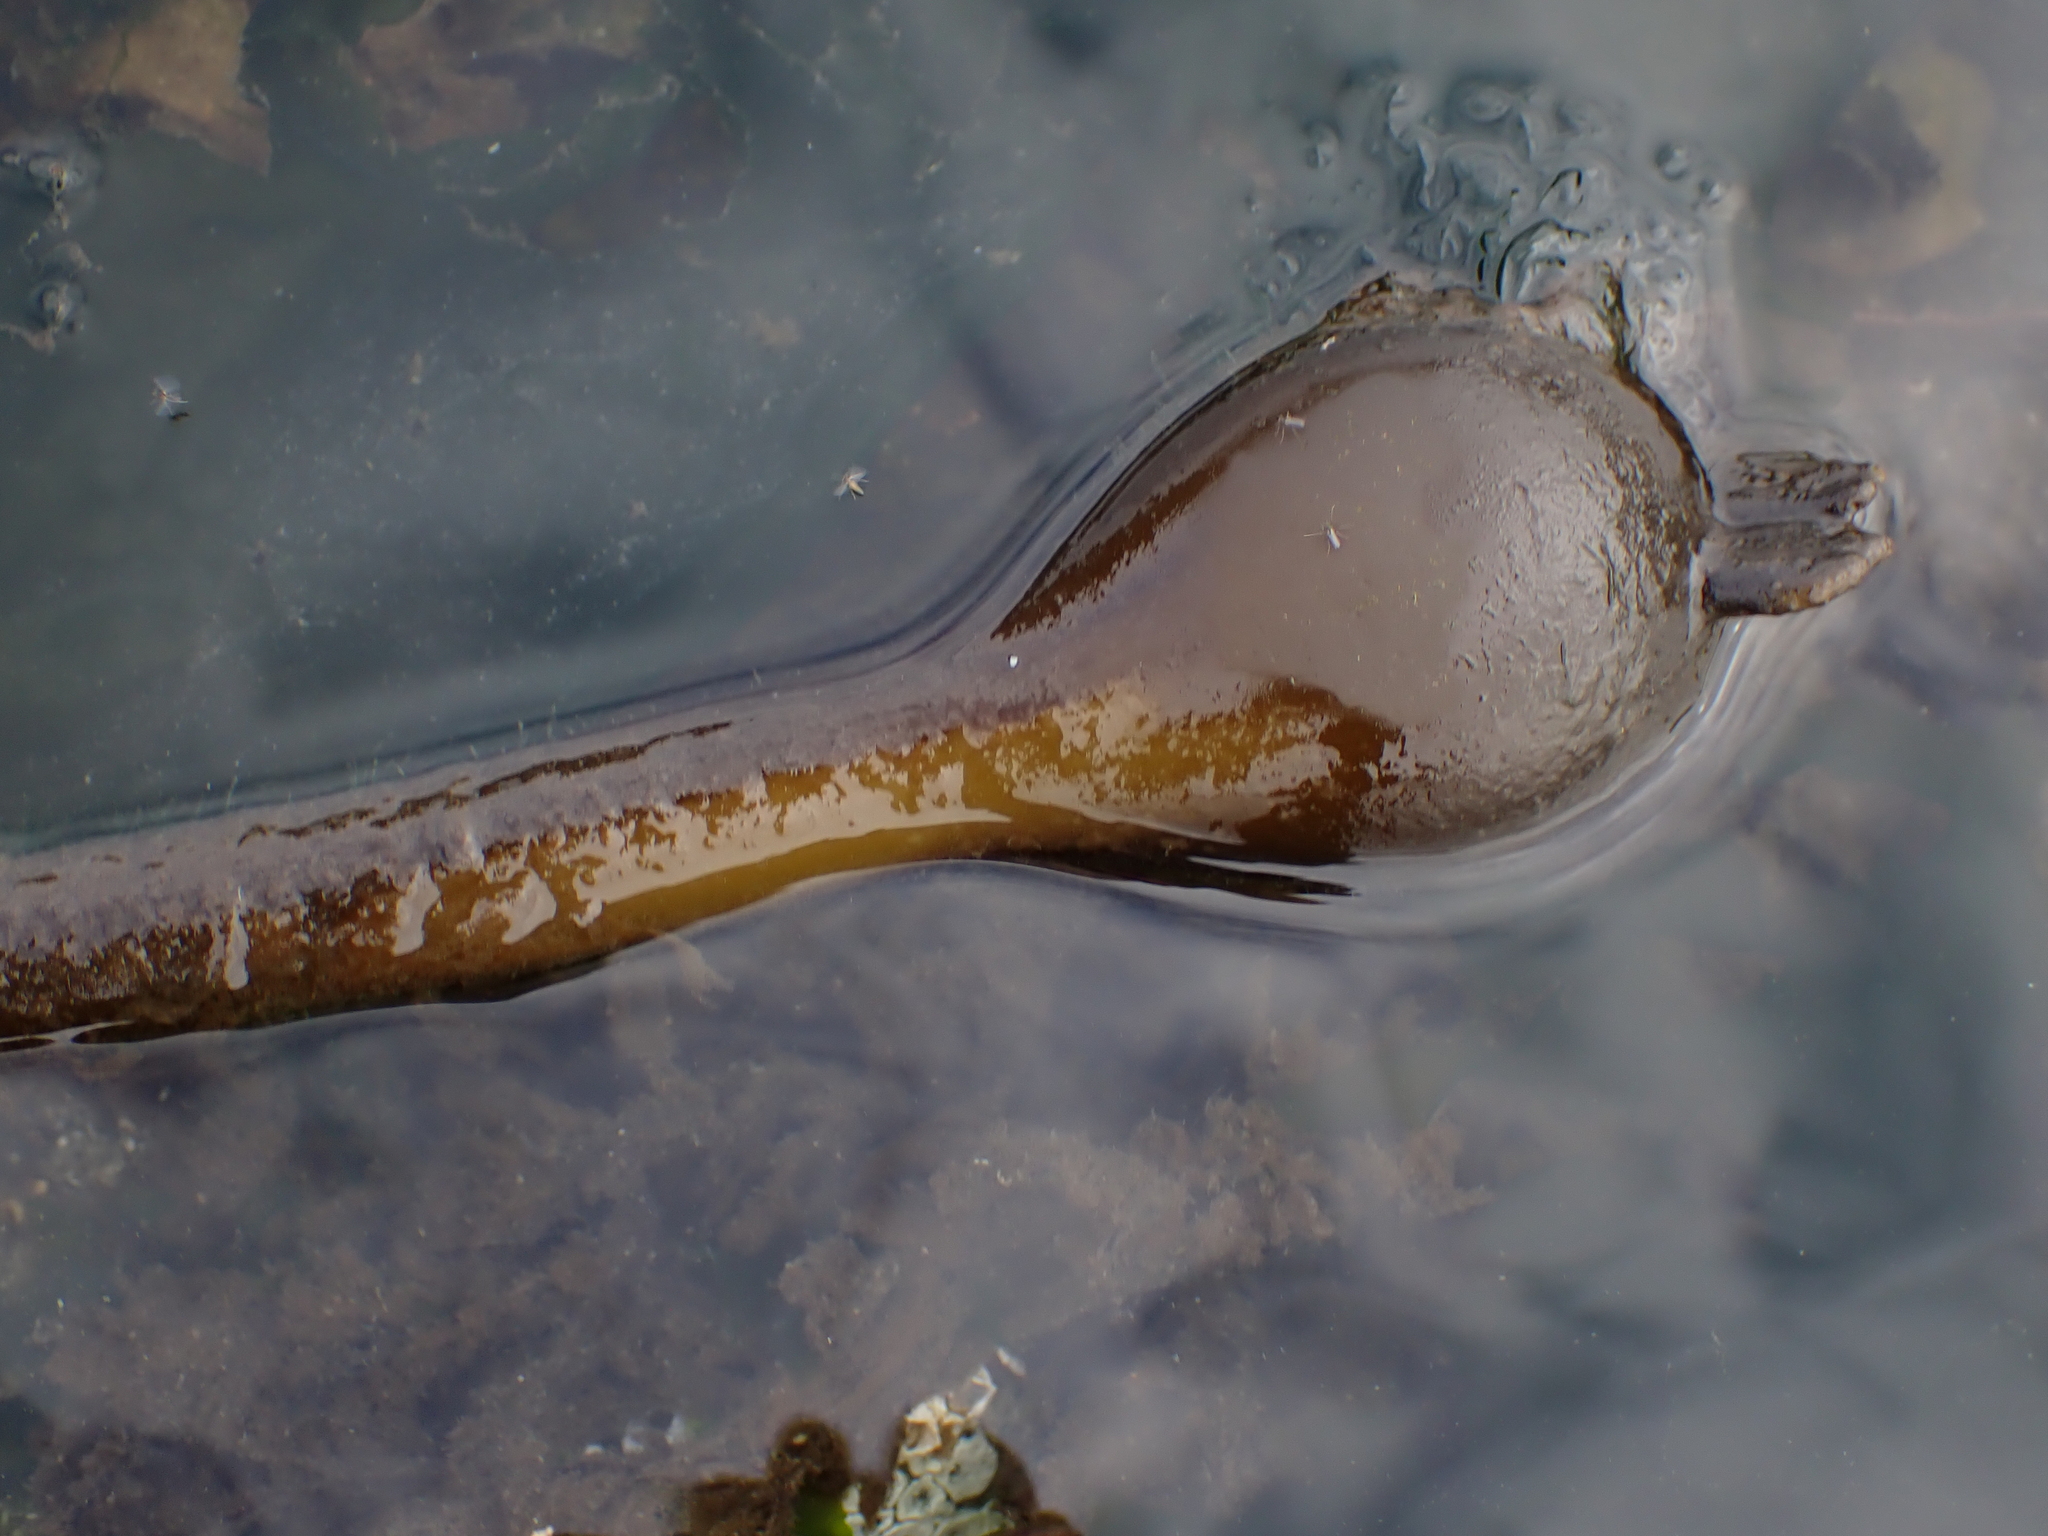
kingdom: Chromista
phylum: Ochrophyta
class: Phaeophyceae
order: Laminariales
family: Laminariaceae
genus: Nereocystis
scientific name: Nereocystis luetkeana
